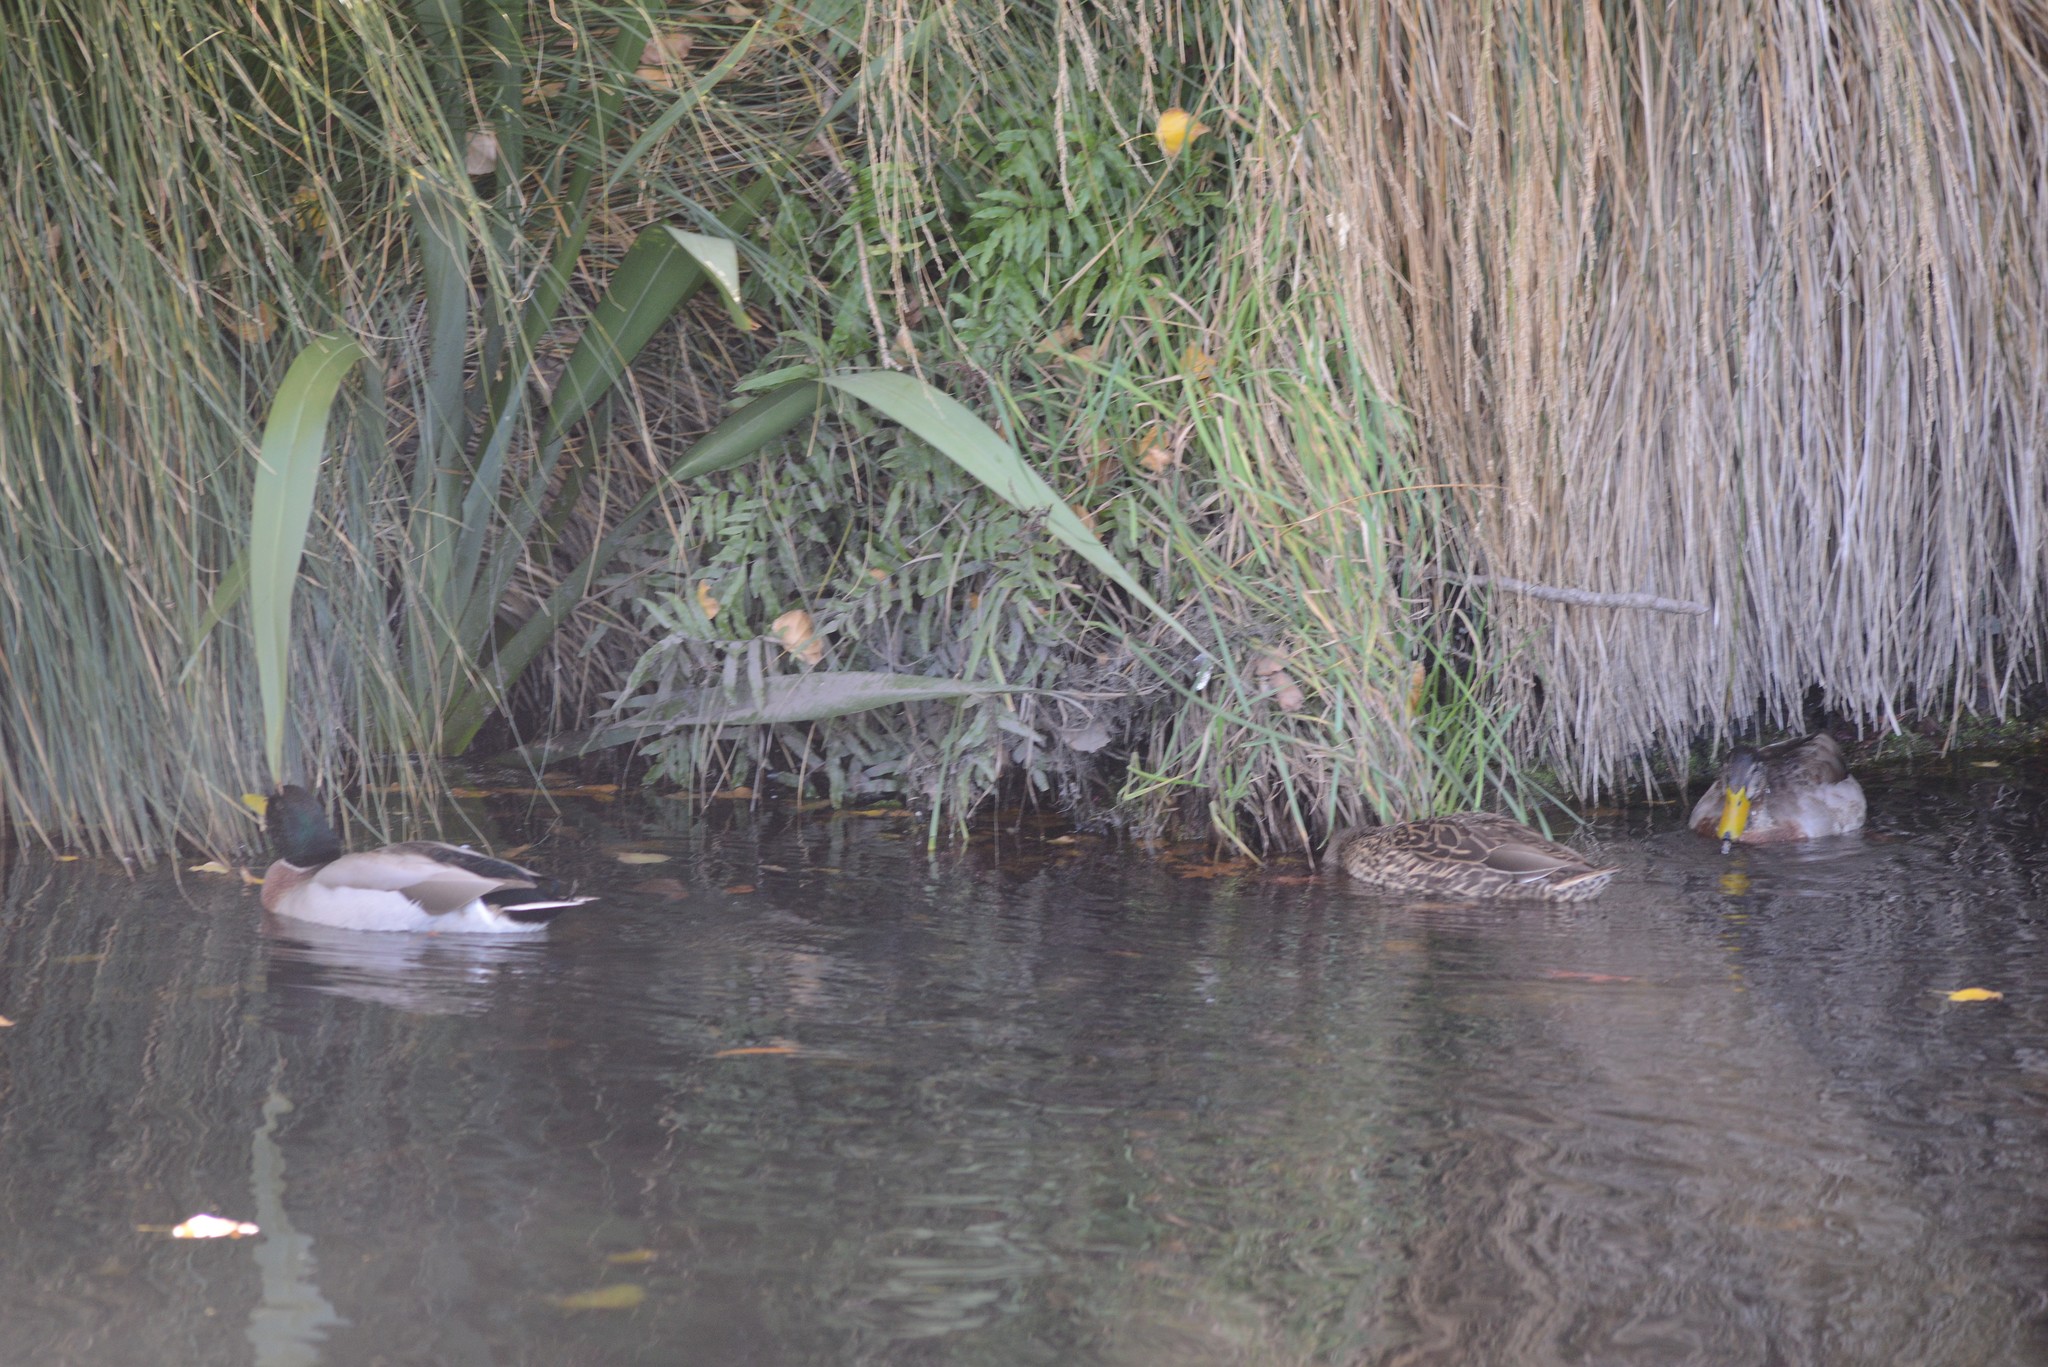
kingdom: Animalia
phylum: Chordata
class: Aves
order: Anseriformes
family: Anatidae
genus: Anas
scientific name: Anas platyrhynchos
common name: Mallard
